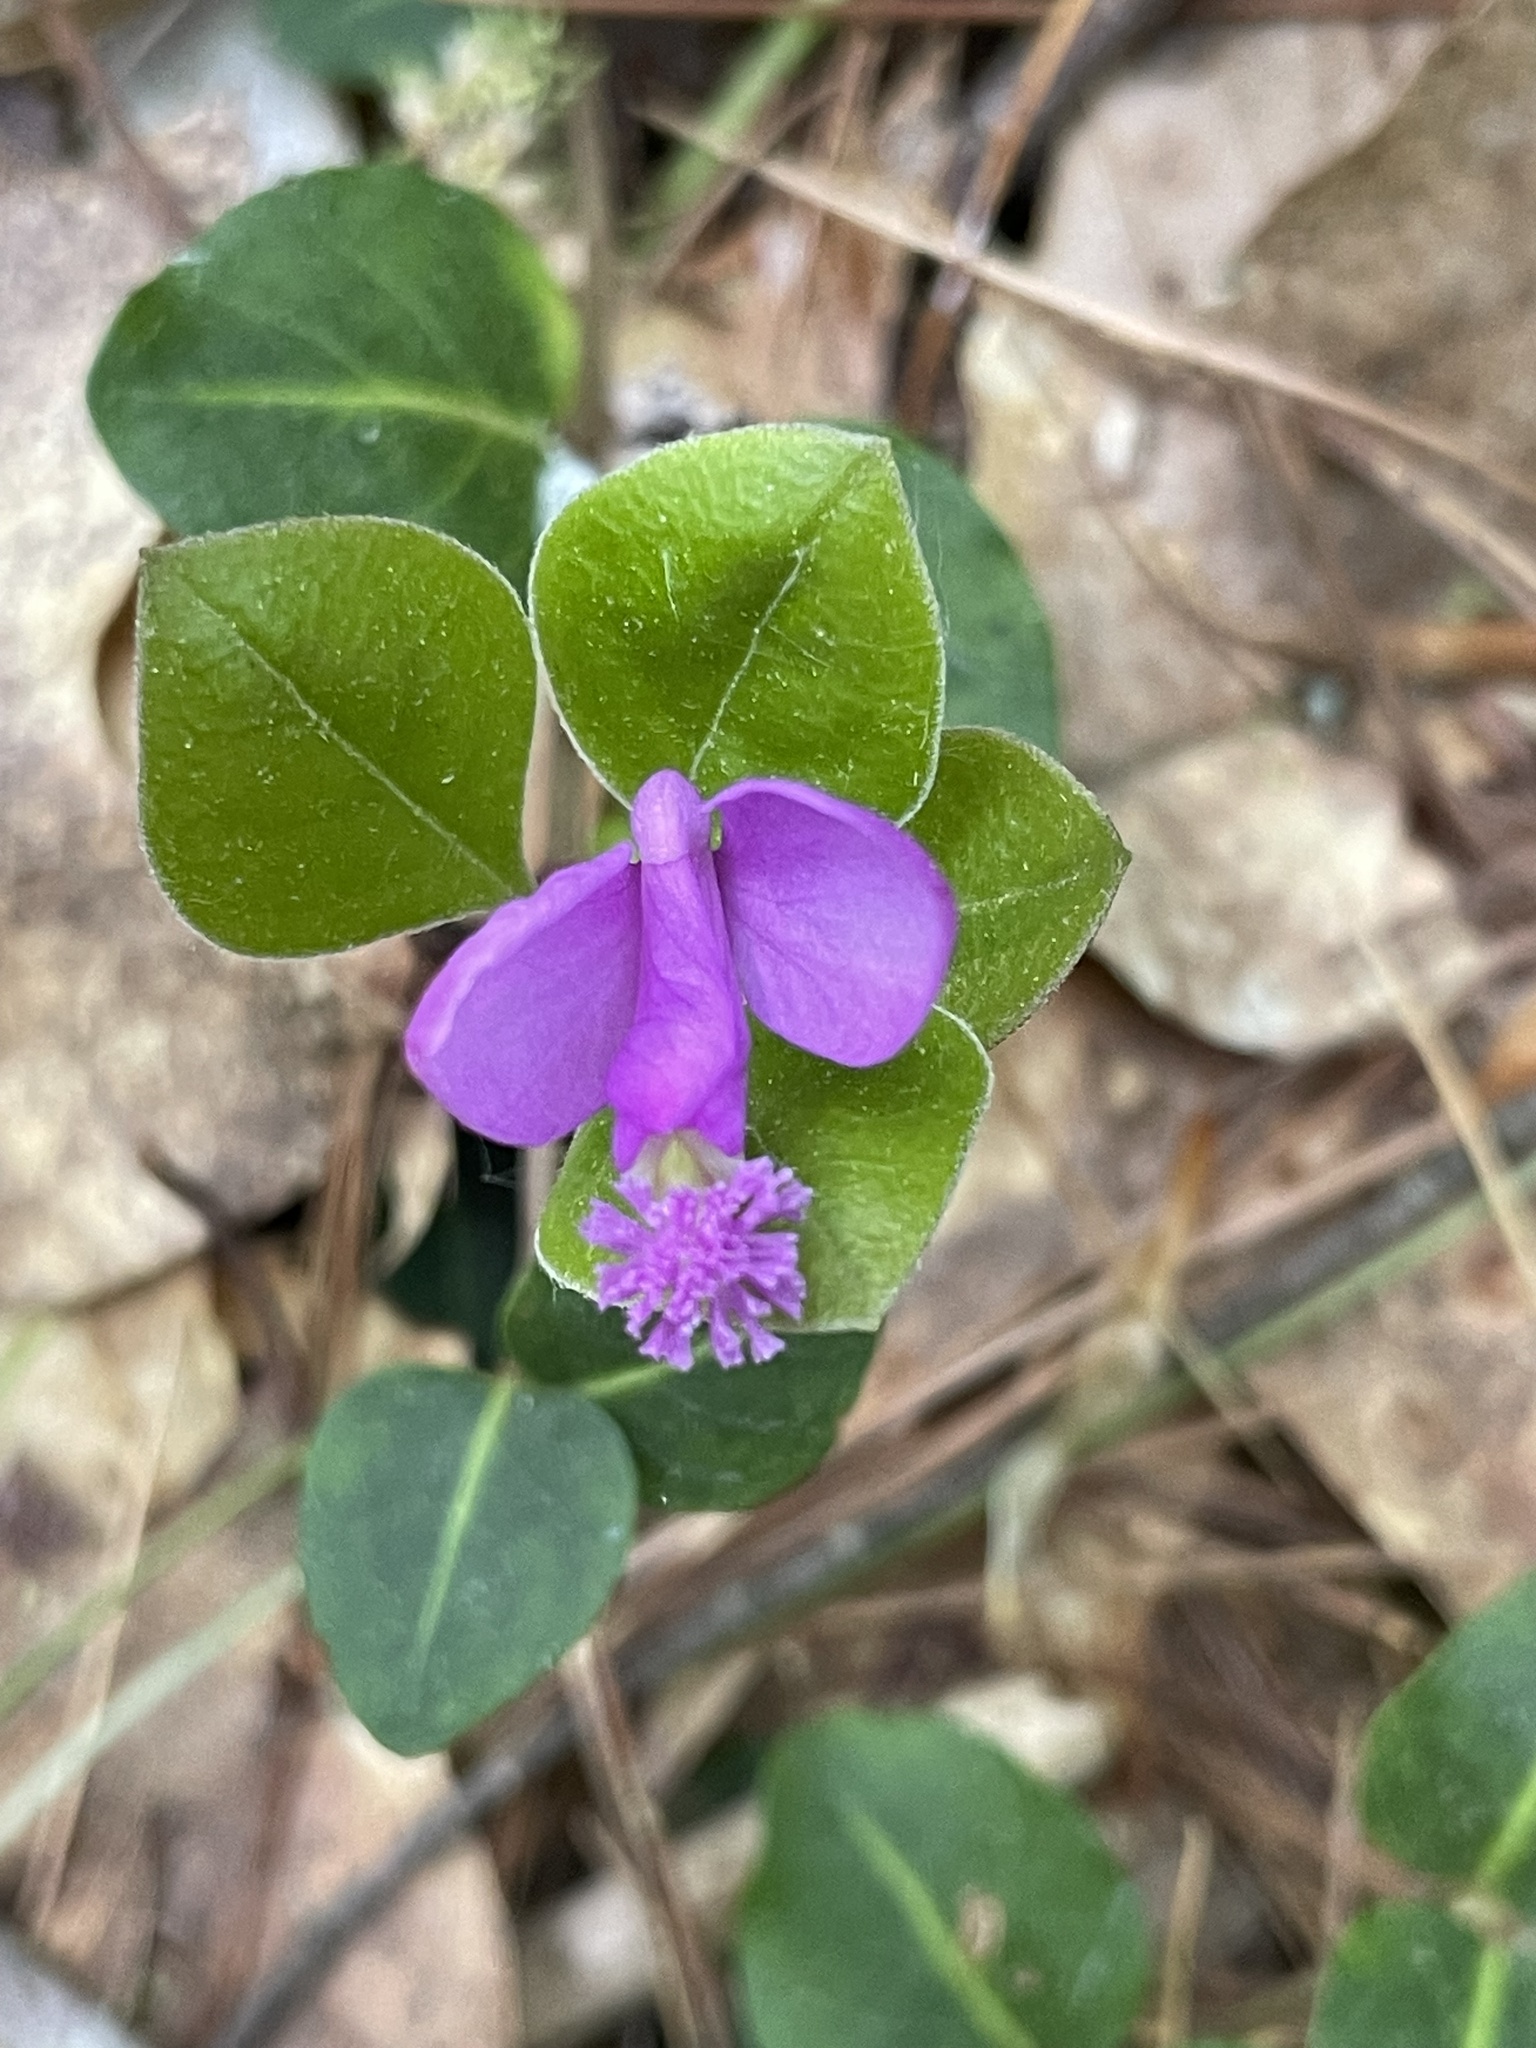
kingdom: Plantae
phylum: Tracheophyta
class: Magnoliopsida
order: Fabales
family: Polygalaceae
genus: Polygaloides
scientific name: Polygaloides paucifolia
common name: Bird-on-the-wing
